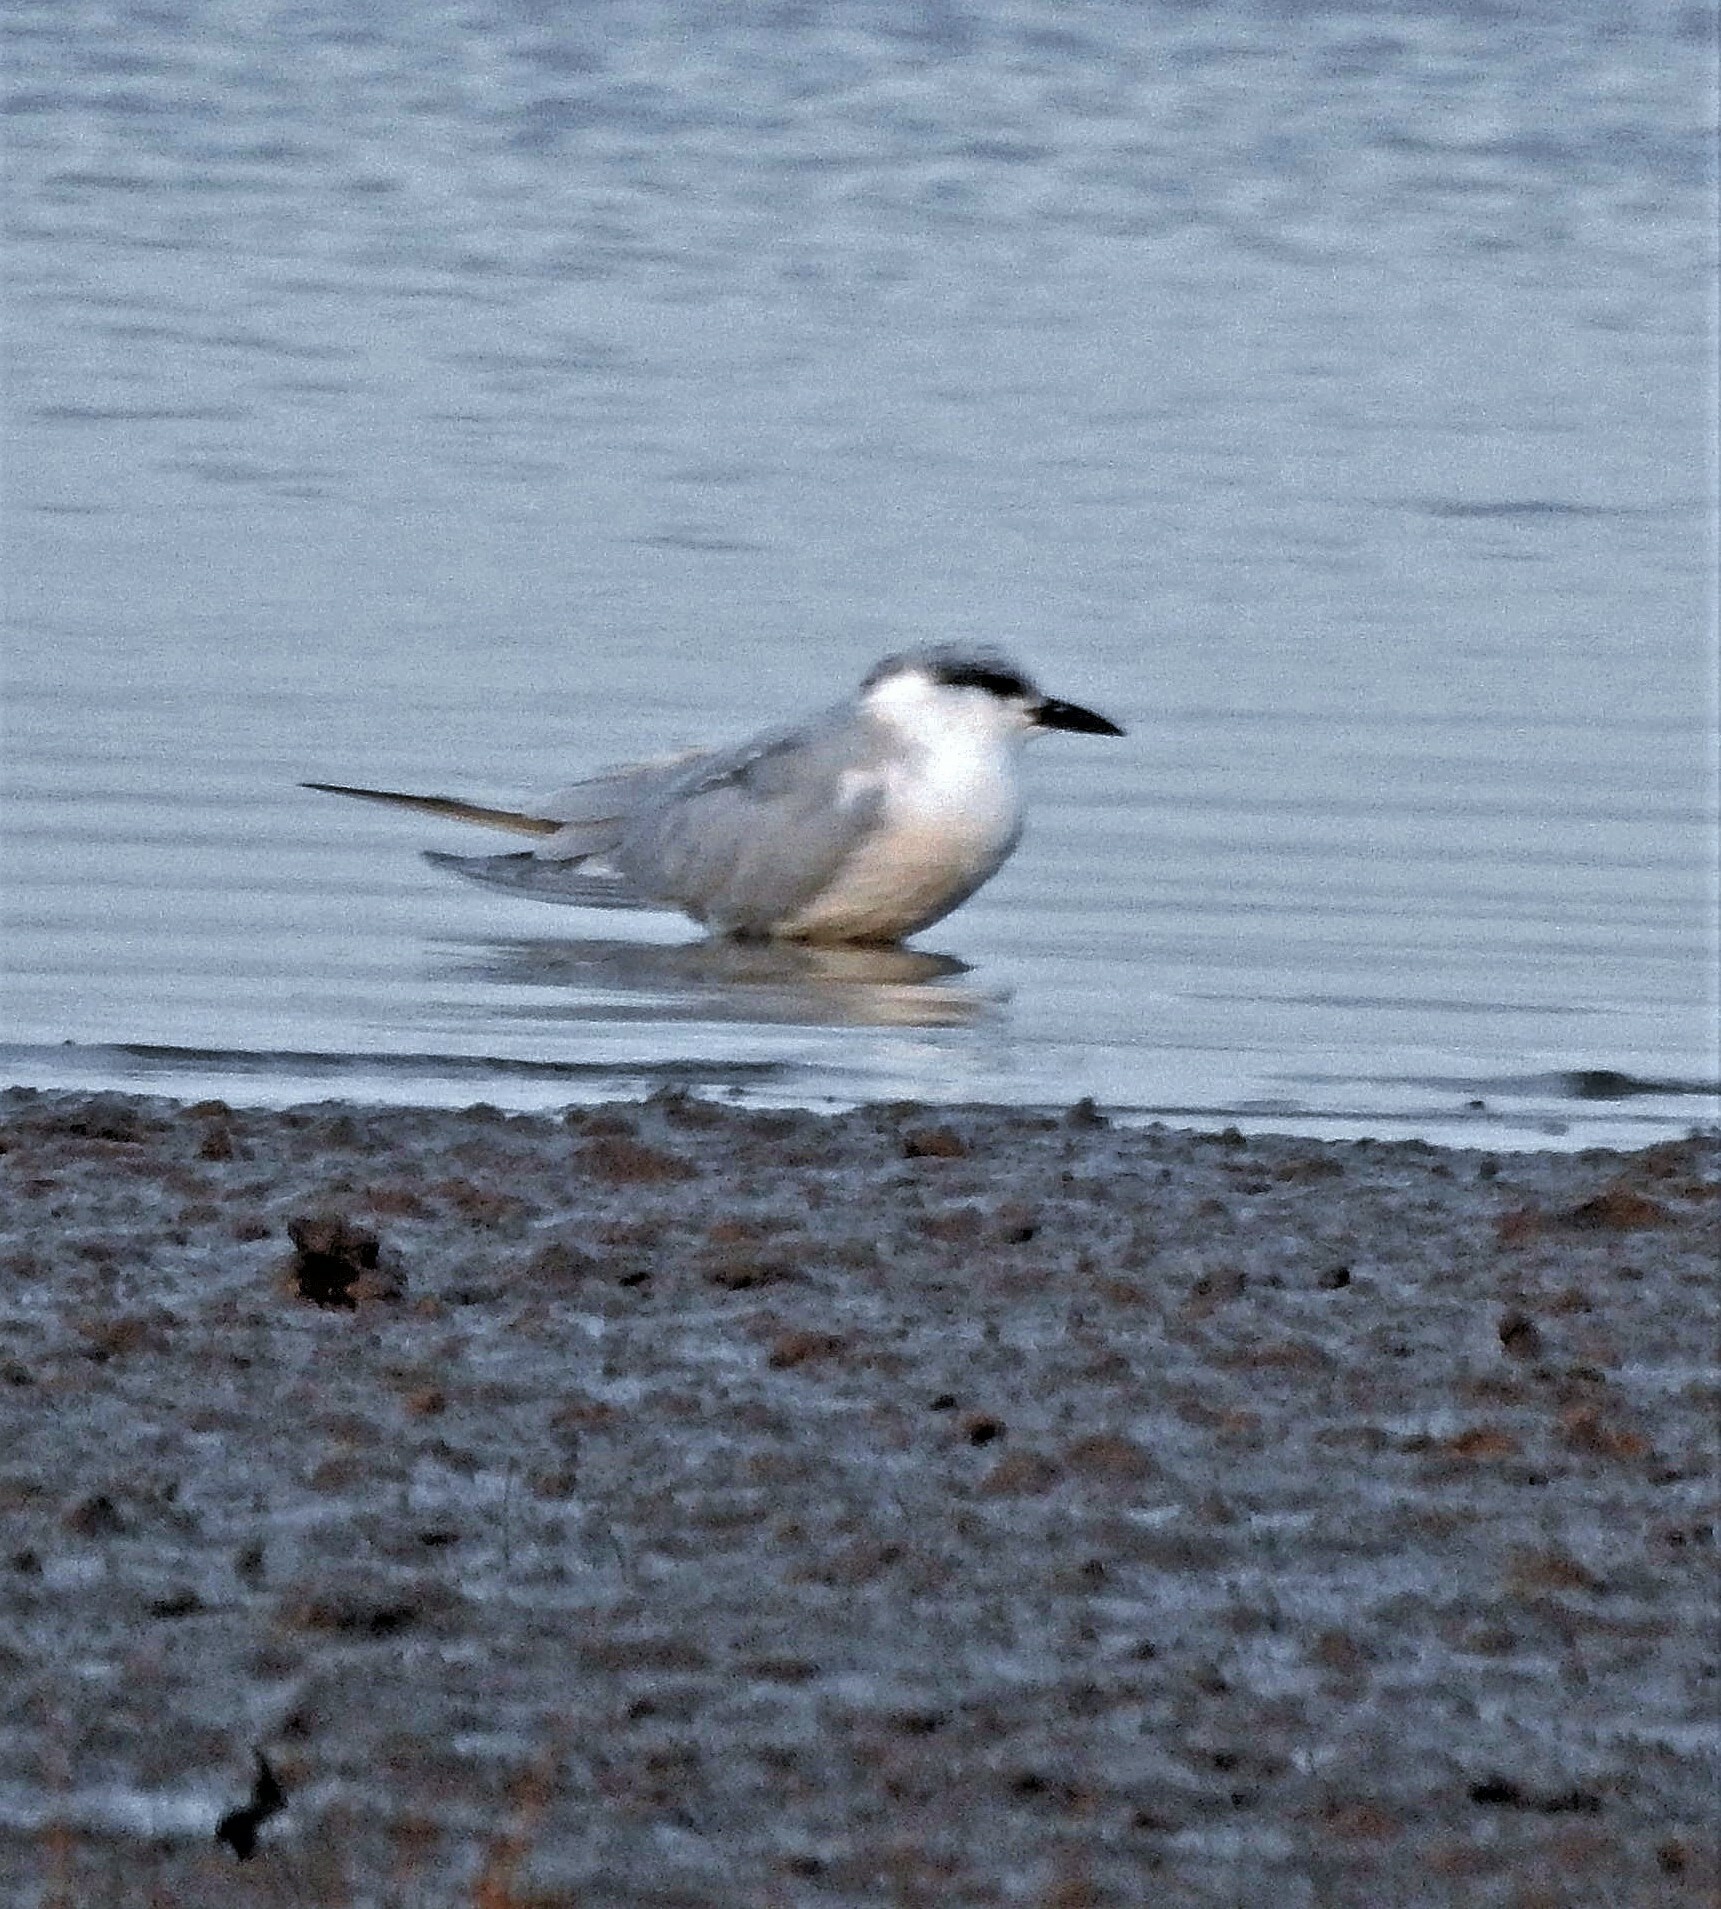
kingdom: Animalia
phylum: Chordata
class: Aves
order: Charadriiformes
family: Laridae
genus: Gelochelidon
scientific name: Gelochelidon nilotica
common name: Gull-billed tern
